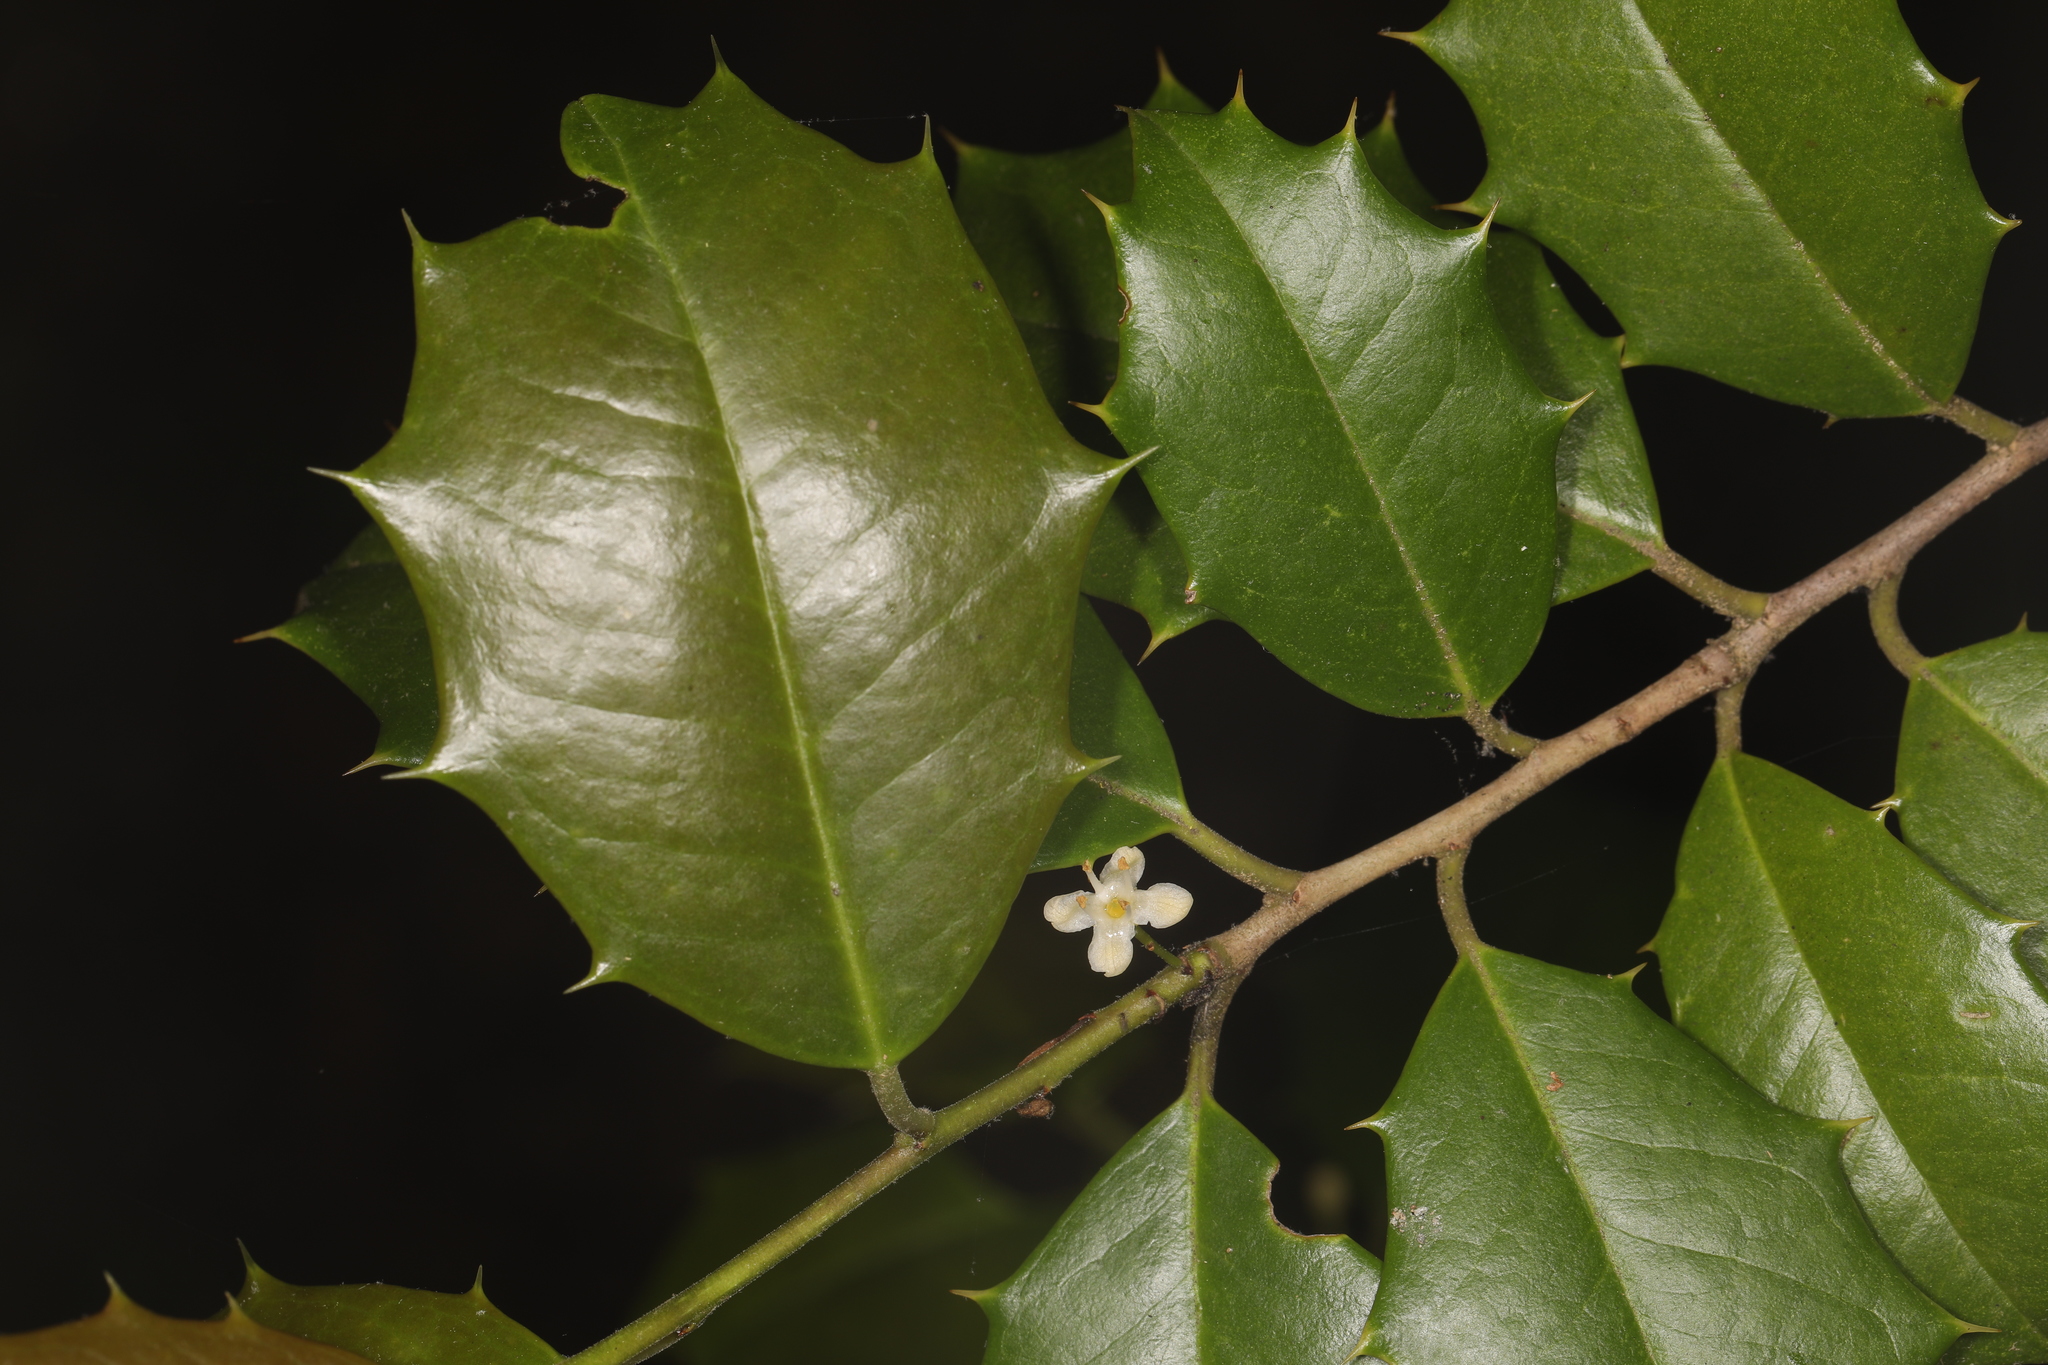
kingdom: Plantae
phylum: Tracheophyta
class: Magnoliopsida
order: Aquifoliales
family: Aquifoliaceae
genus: Ilex
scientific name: Ilex opaca
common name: American holly
